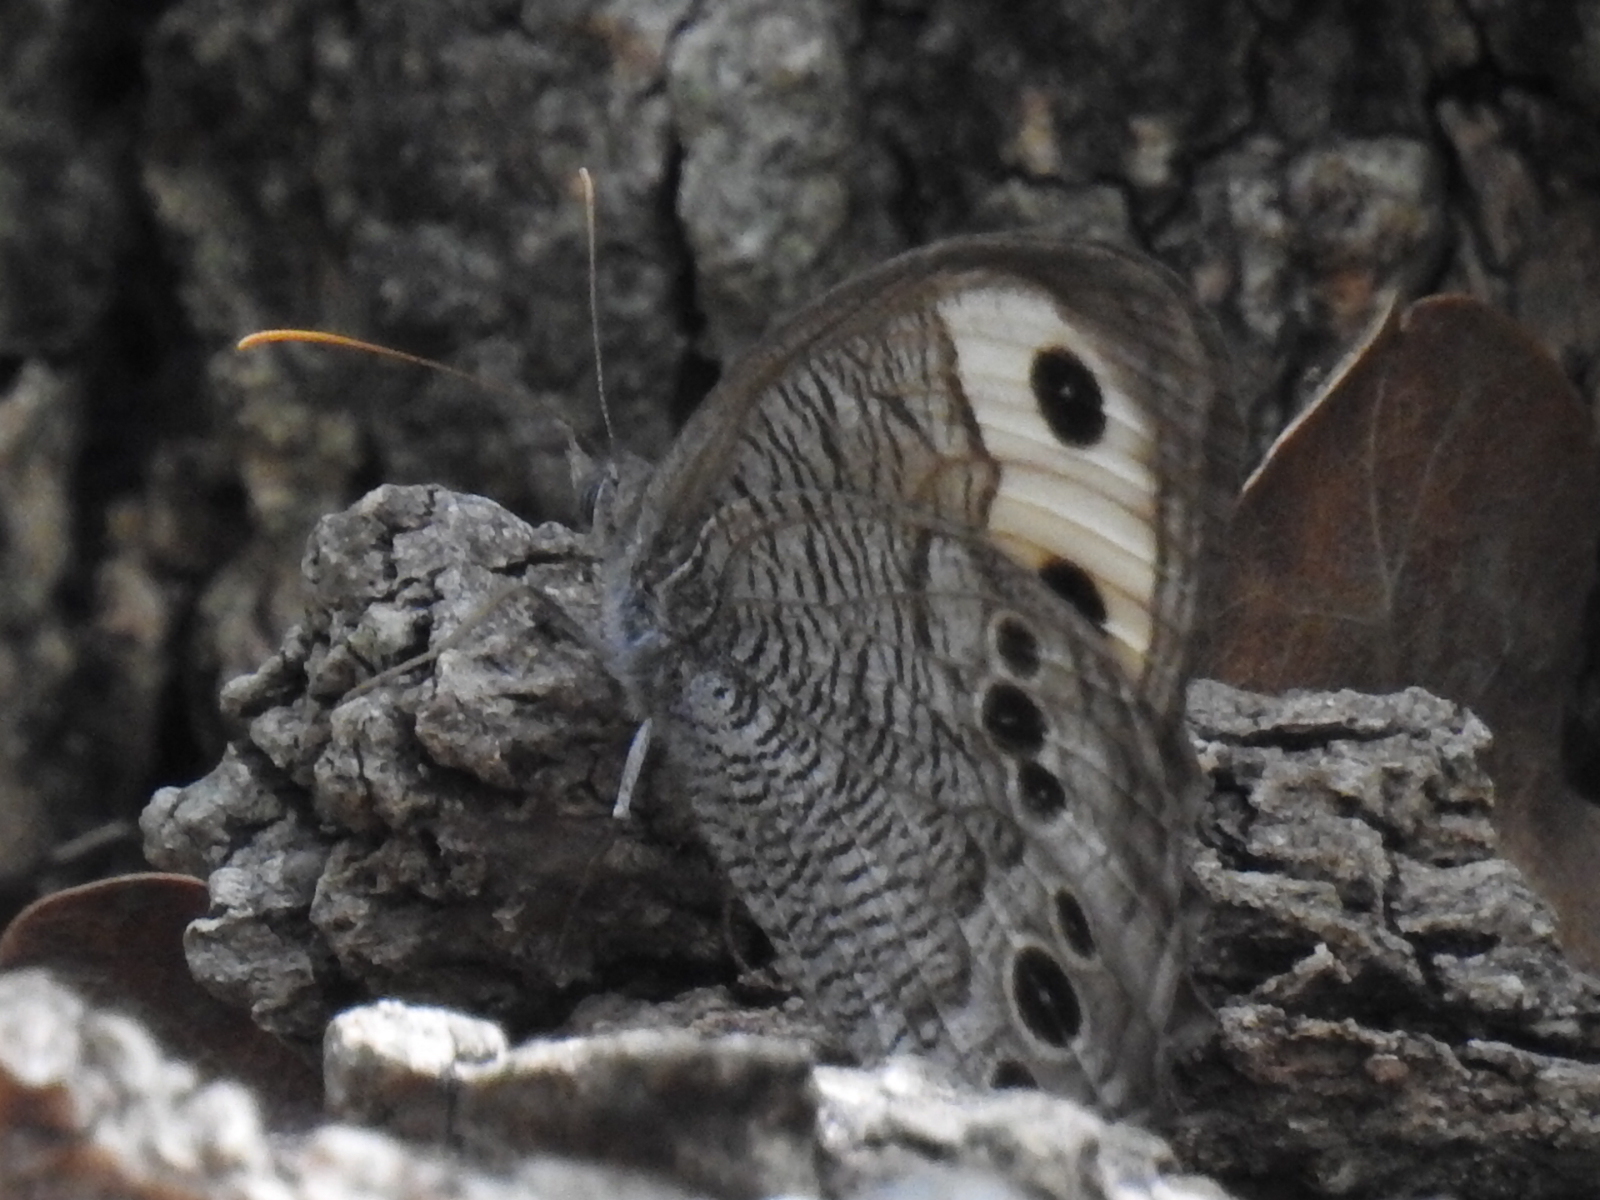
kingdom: Animalia
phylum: Arthropoda
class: Insecta
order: Lepidoptera
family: Nymphalidae
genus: Cercyonis
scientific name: Cercyonis pegala
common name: Common wood-nymph
